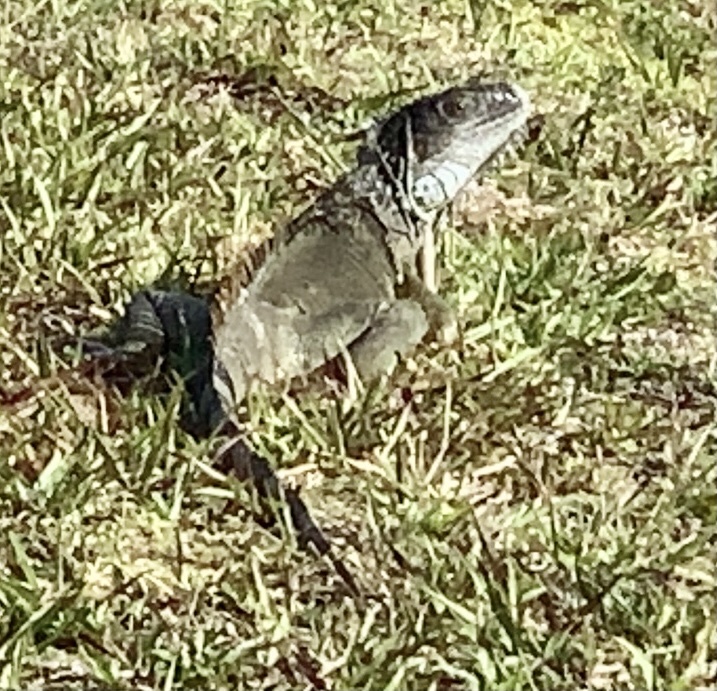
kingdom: Animalia
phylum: Chordata
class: Squamata
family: Iguanidae
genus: Iguana
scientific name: Iguana iguana
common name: Green iguana
